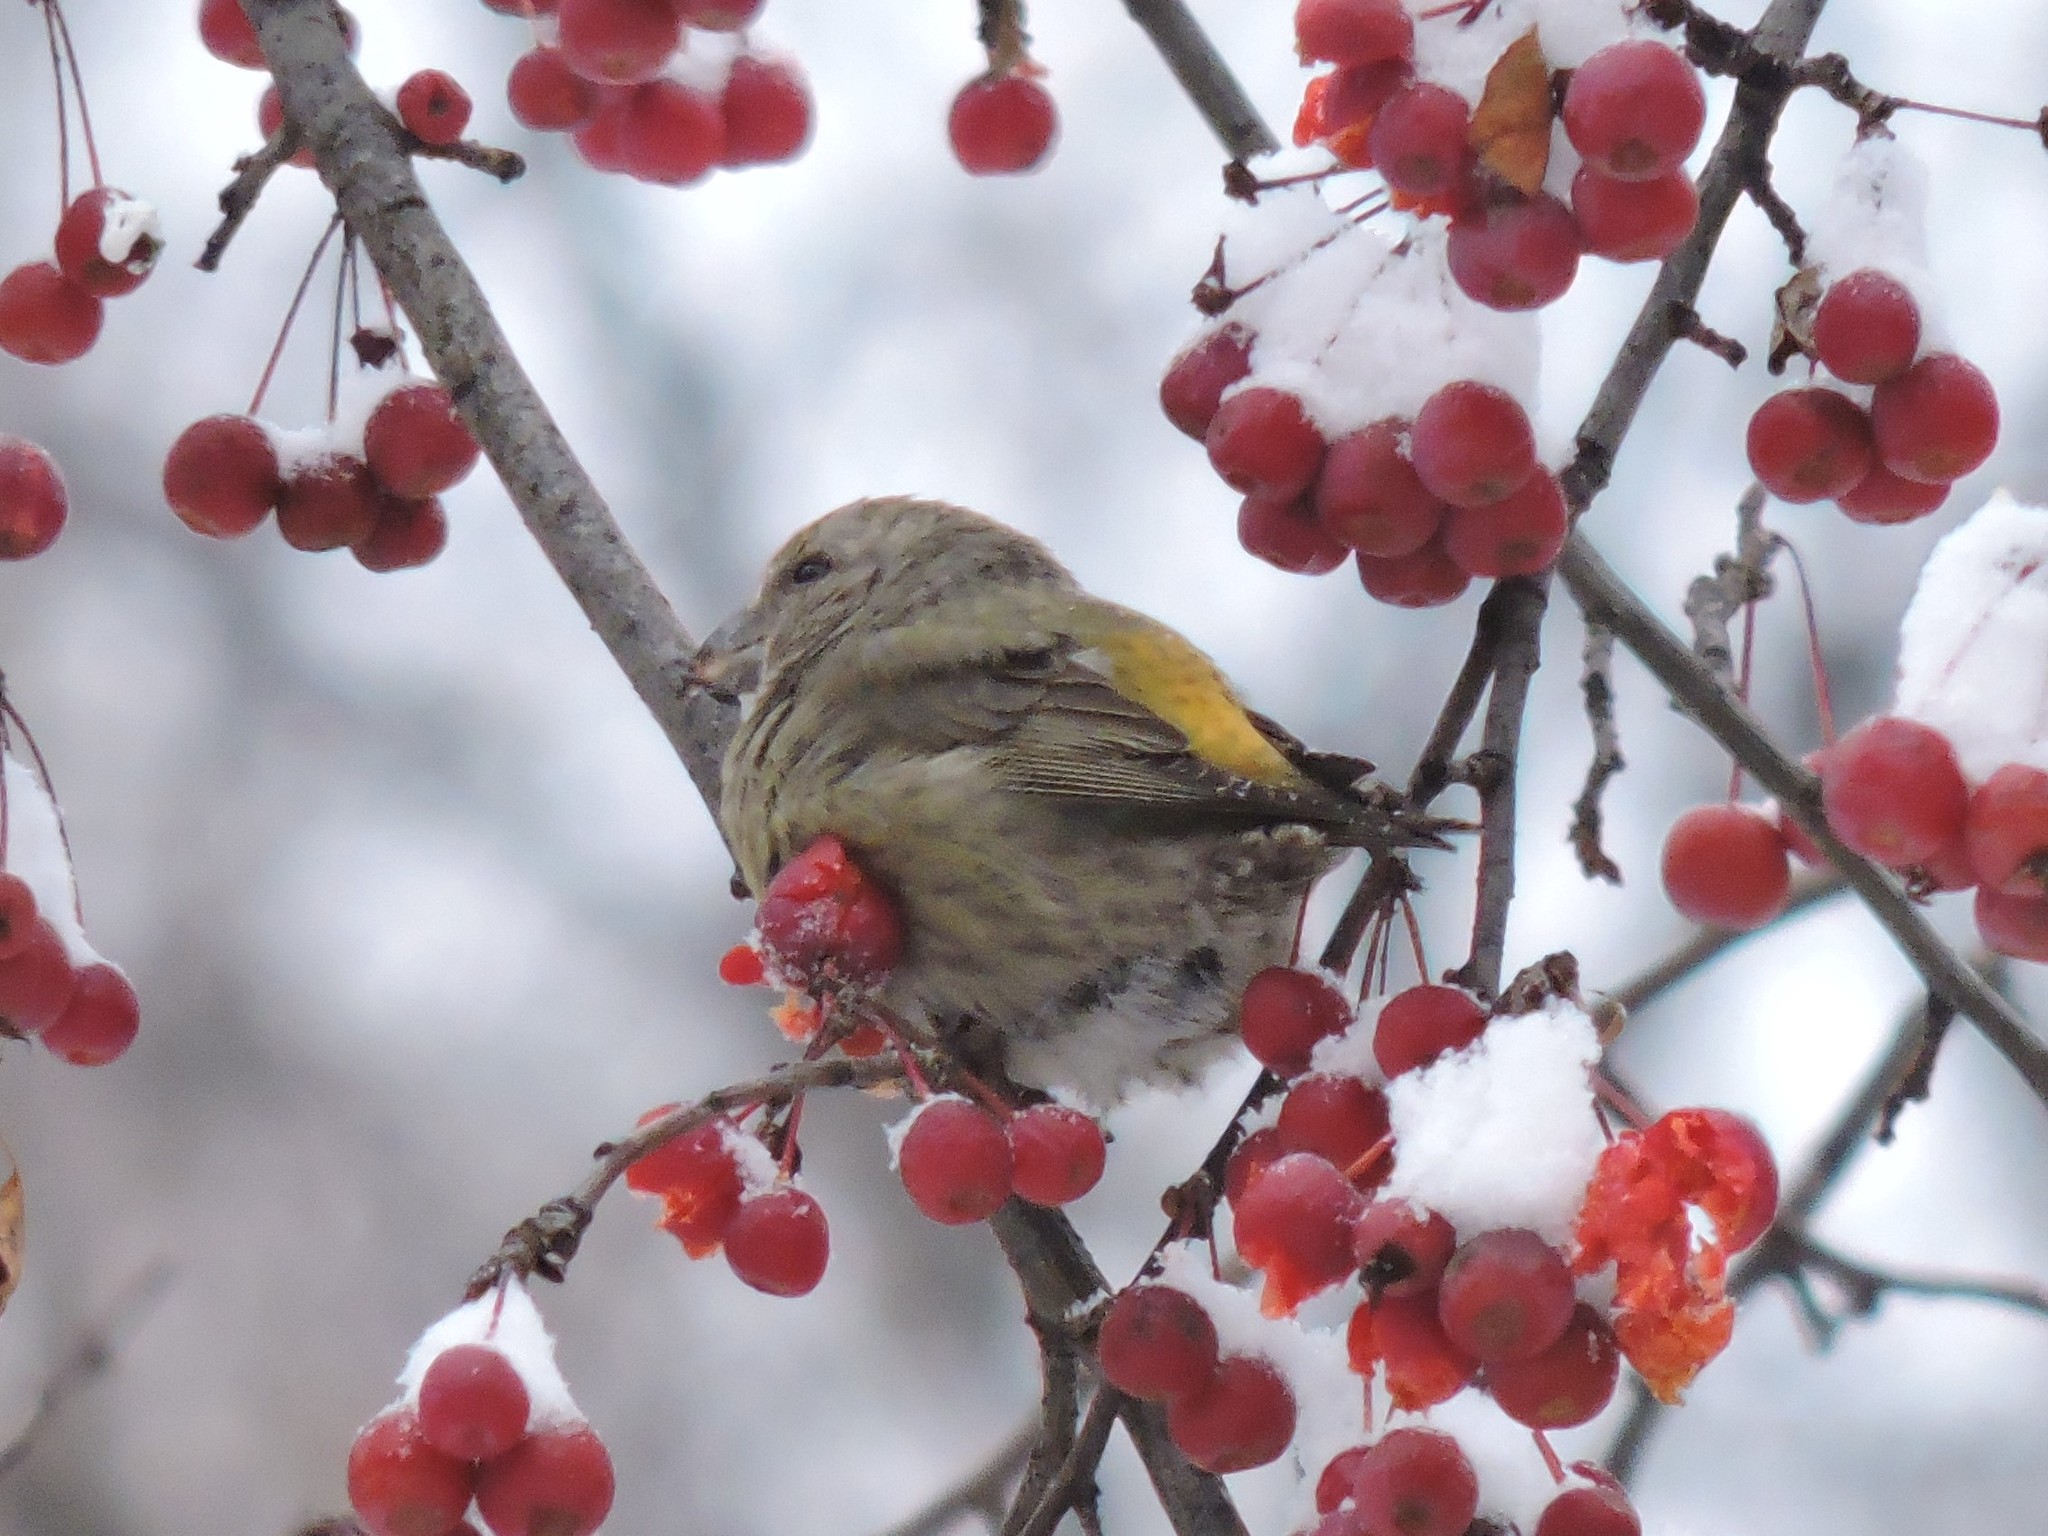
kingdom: Animalia
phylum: Chordata
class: Aves
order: Passeriformes
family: Fringillidae
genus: Loxia
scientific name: Loxia curvirostra
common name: Red crossbill
